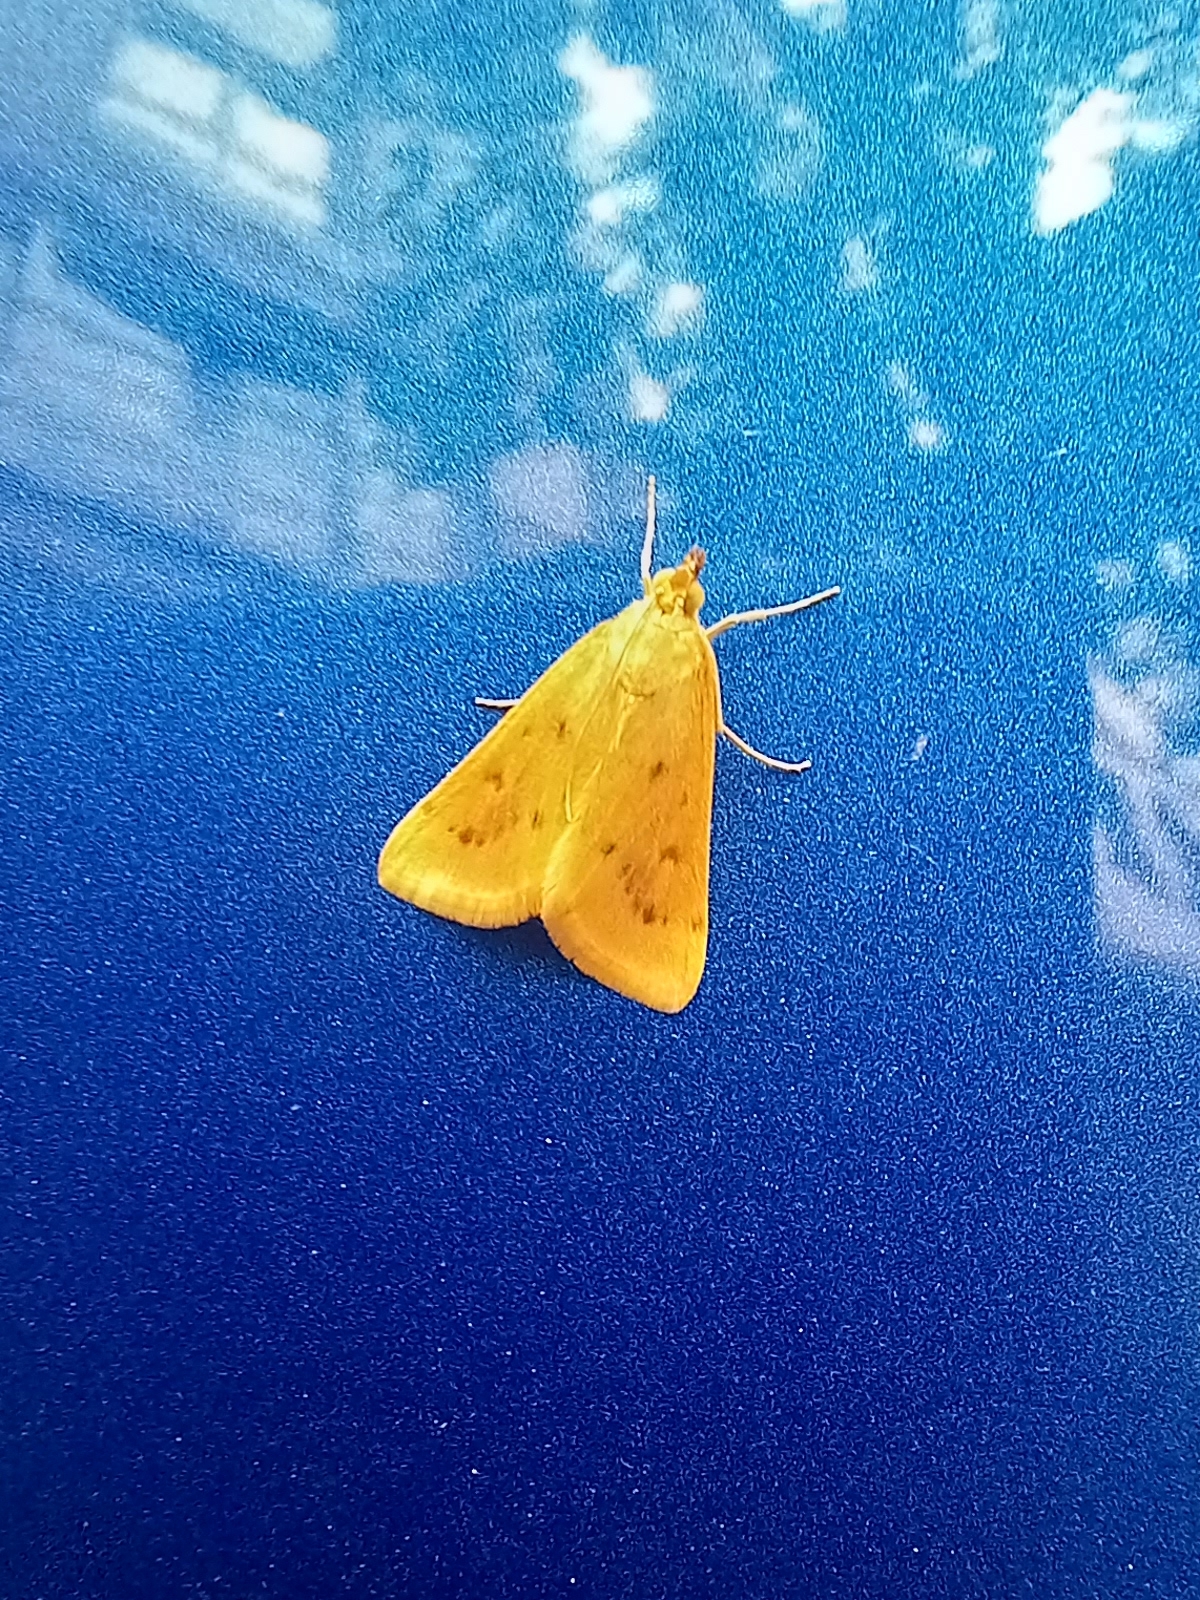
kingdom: Animalia
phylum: Arthropoda
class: Insecta
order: Lepidoptera
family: Crambidae
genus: Achyra
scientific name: Achyra nudalis
